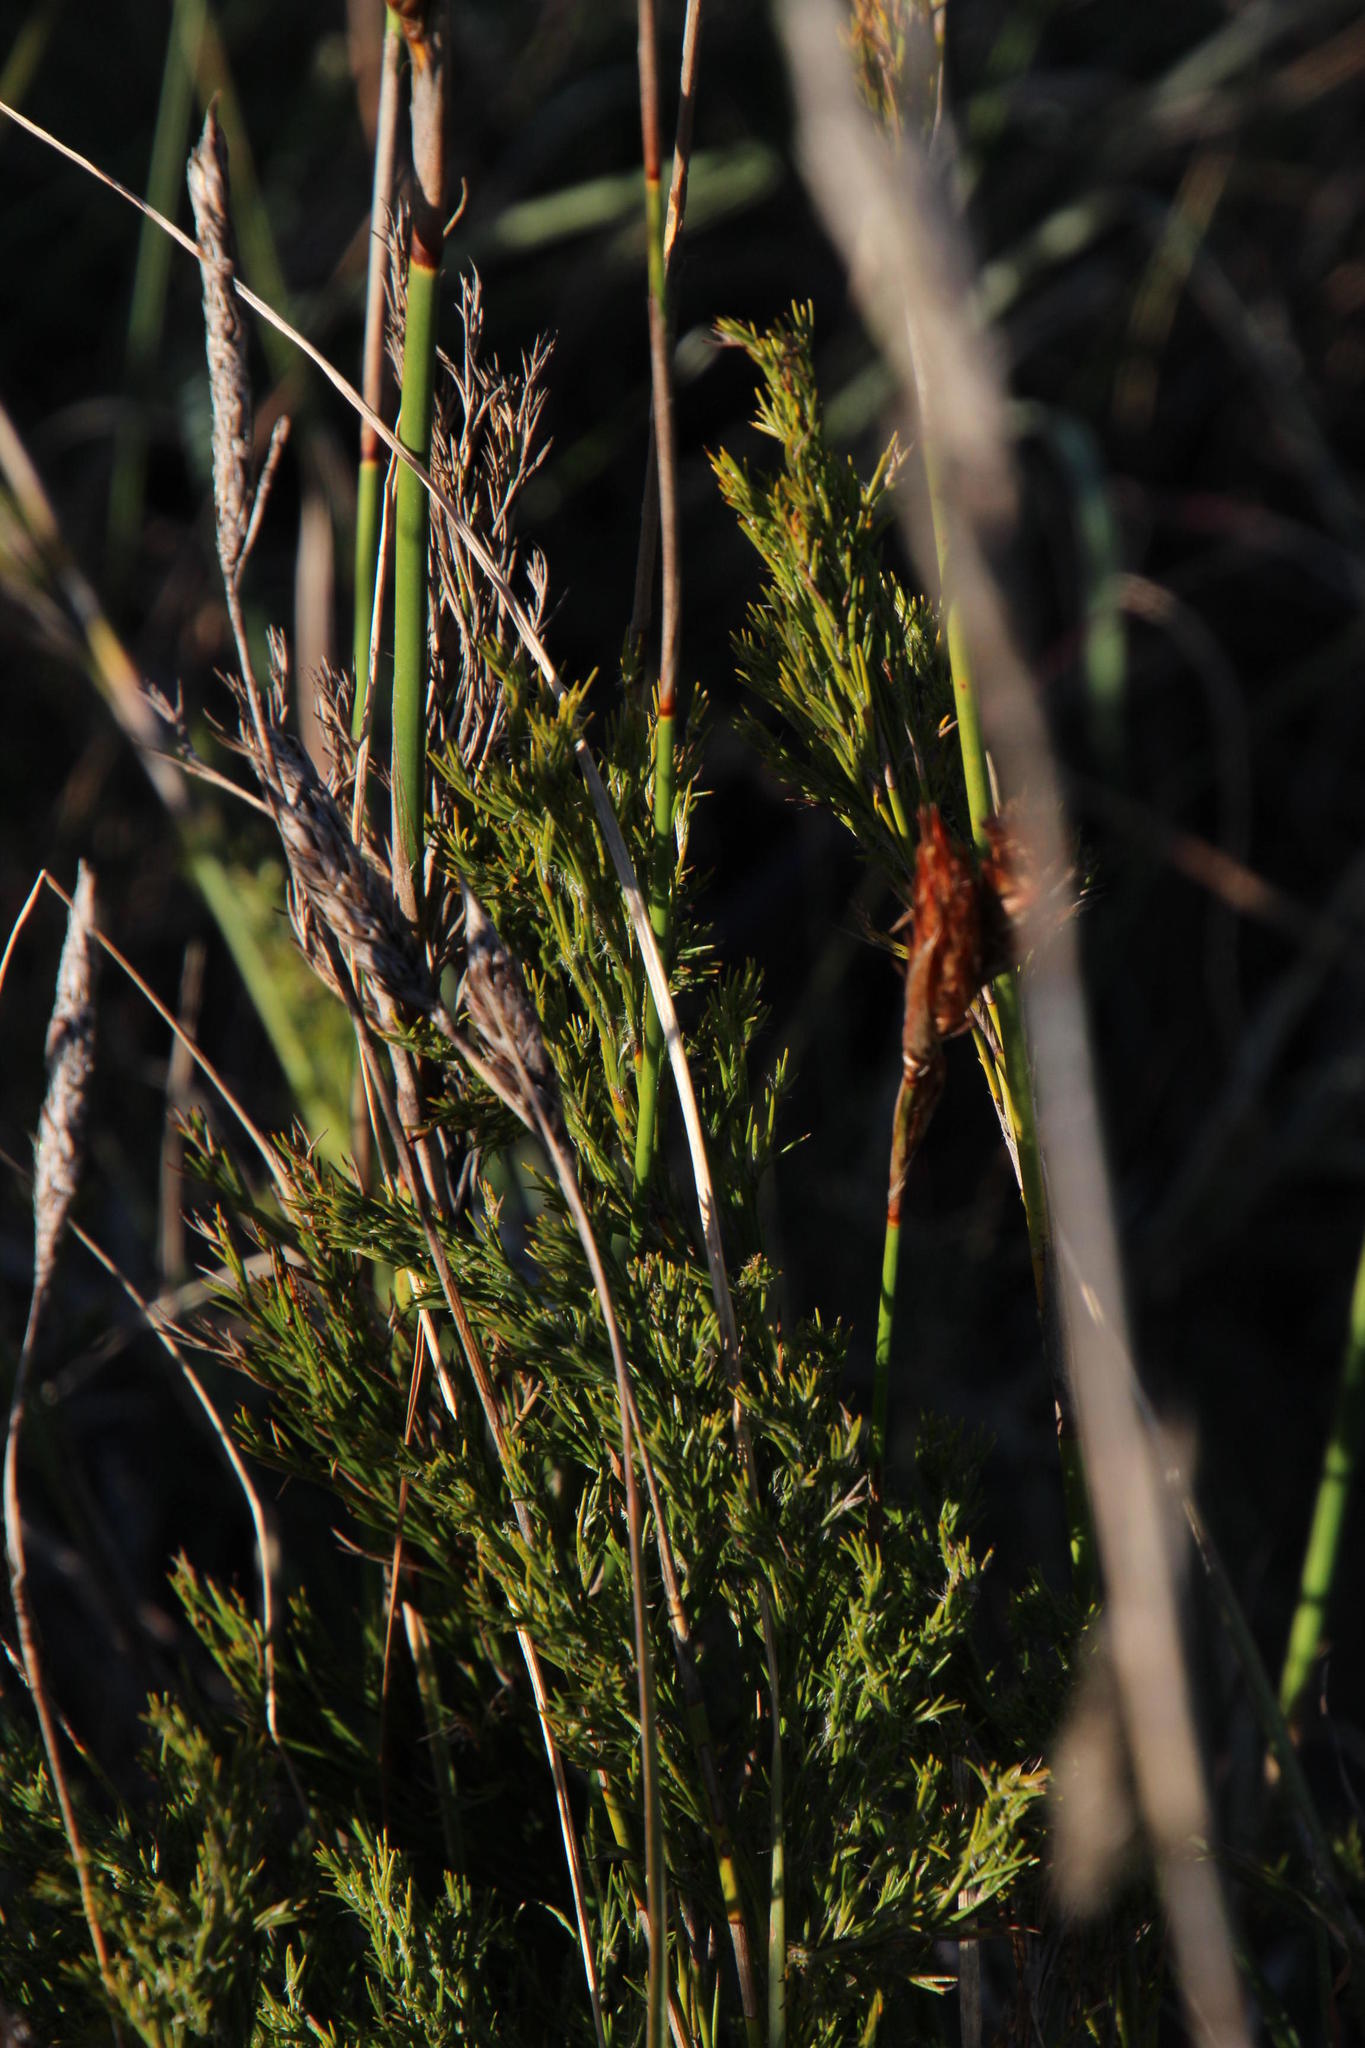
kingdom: Plantae
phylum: Tracheophyta
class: Liliopsida
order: Poales
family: Restionaceae
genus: Thamnochortus
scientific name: Thamnochortus glaber
